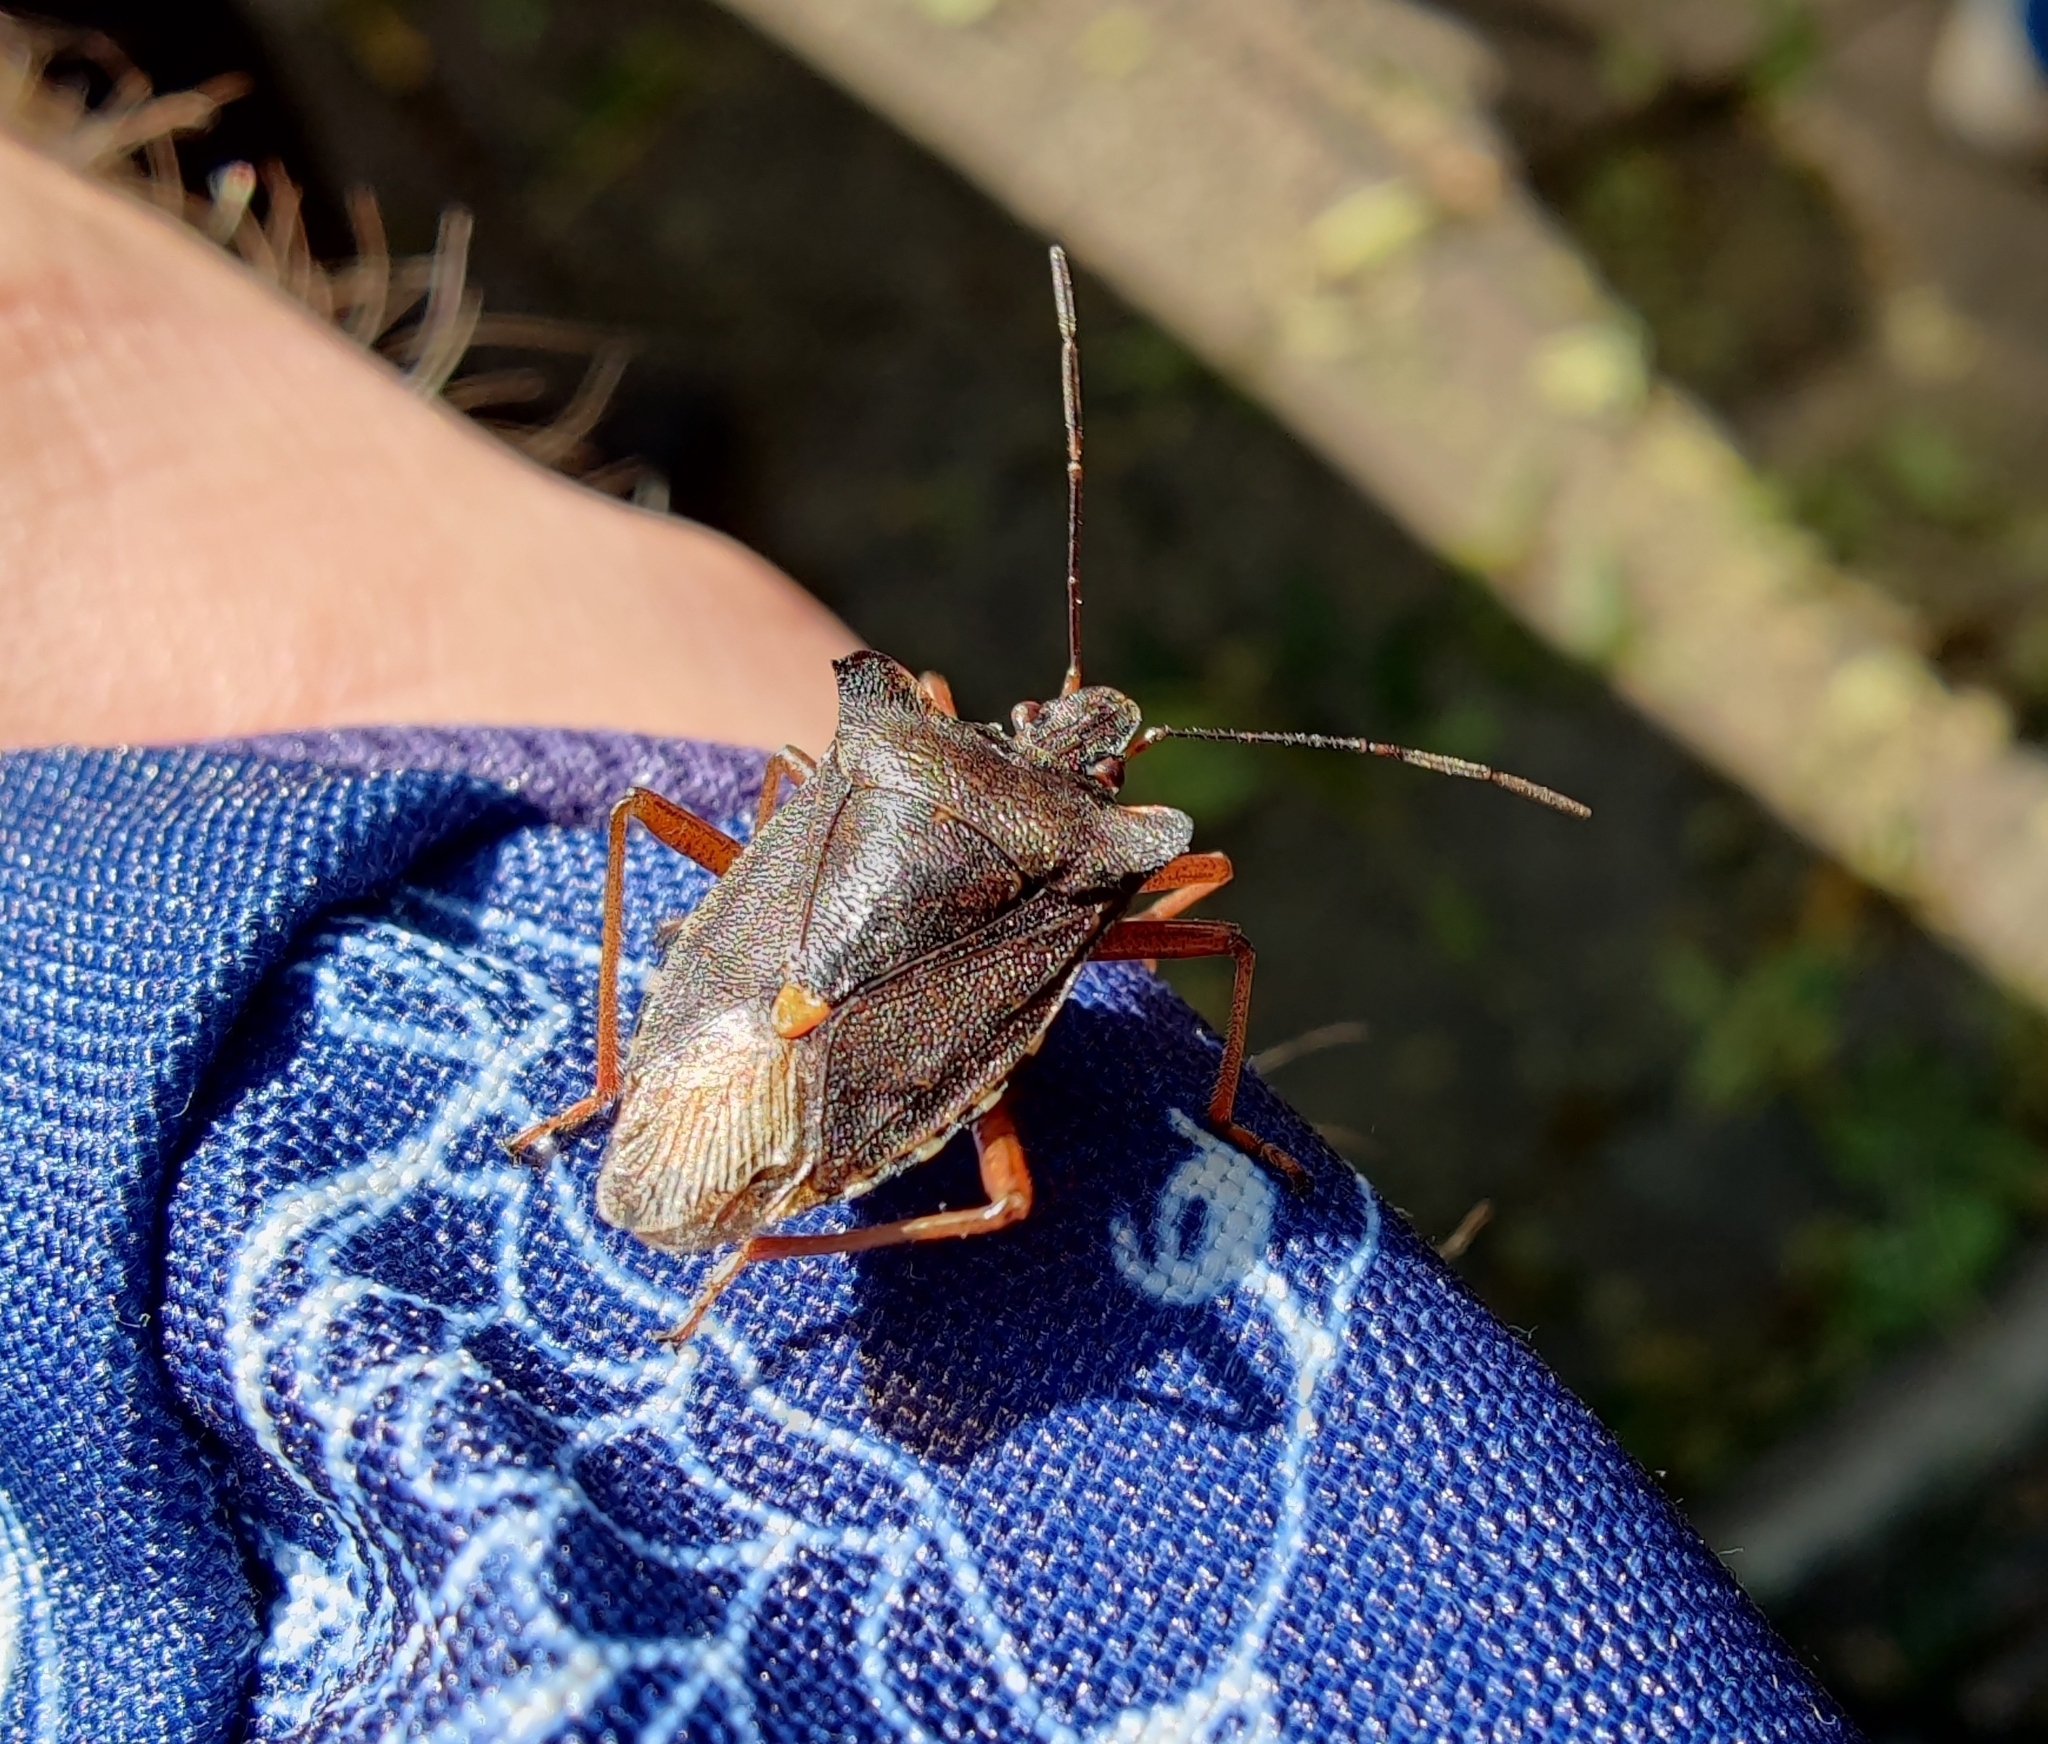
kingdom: Animalia
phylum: Arthropoda
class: Insecta
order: Hemiptera
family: Pentatomidae
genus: Pentatoma
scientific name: Pentatoma rufipes
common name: Forest bug
